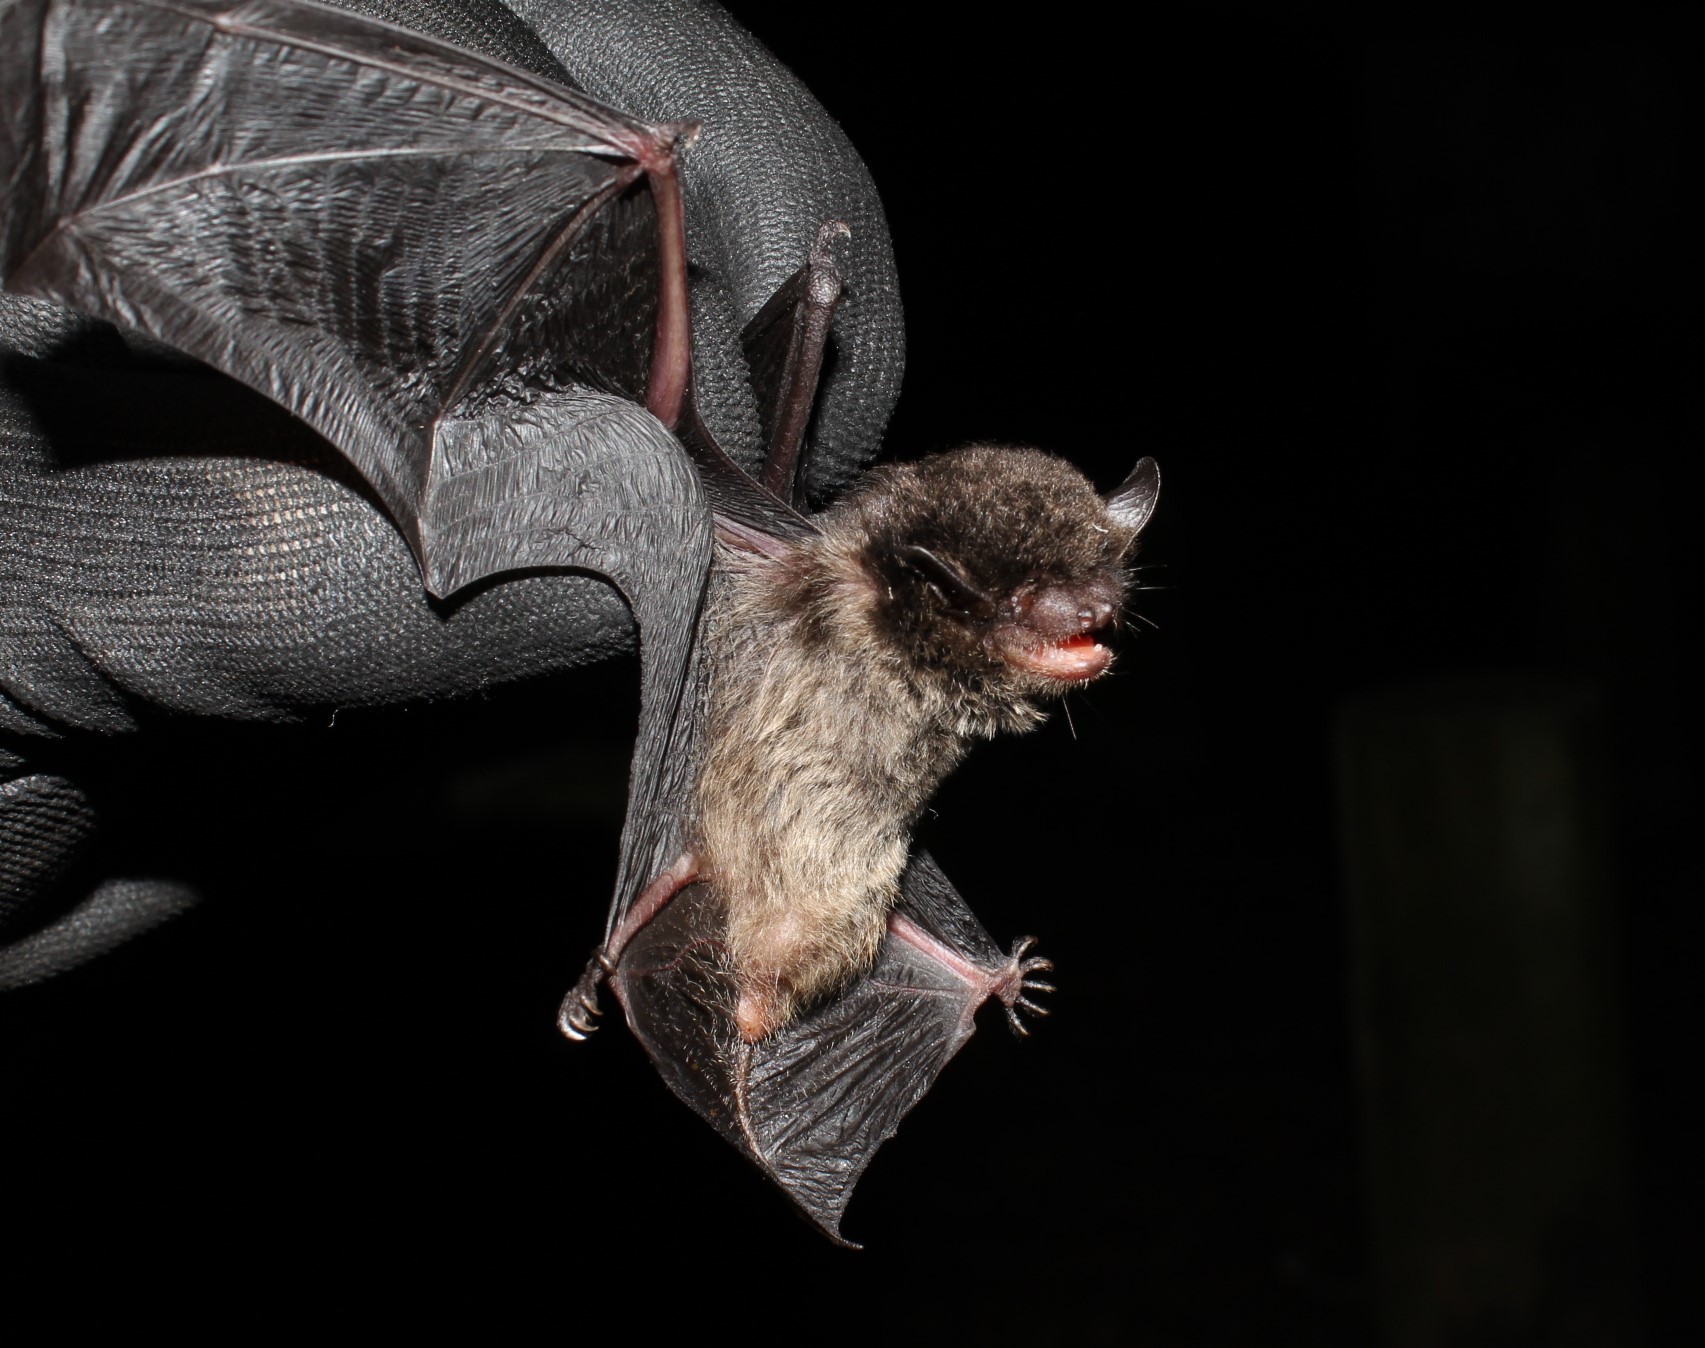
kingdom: Animalia
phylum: Chordata
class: Mammalia
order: Chiroptera
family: Vespertilionidae
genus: Eptesicus
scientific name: Eptesicus diminutus
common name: Diminutive serotine
